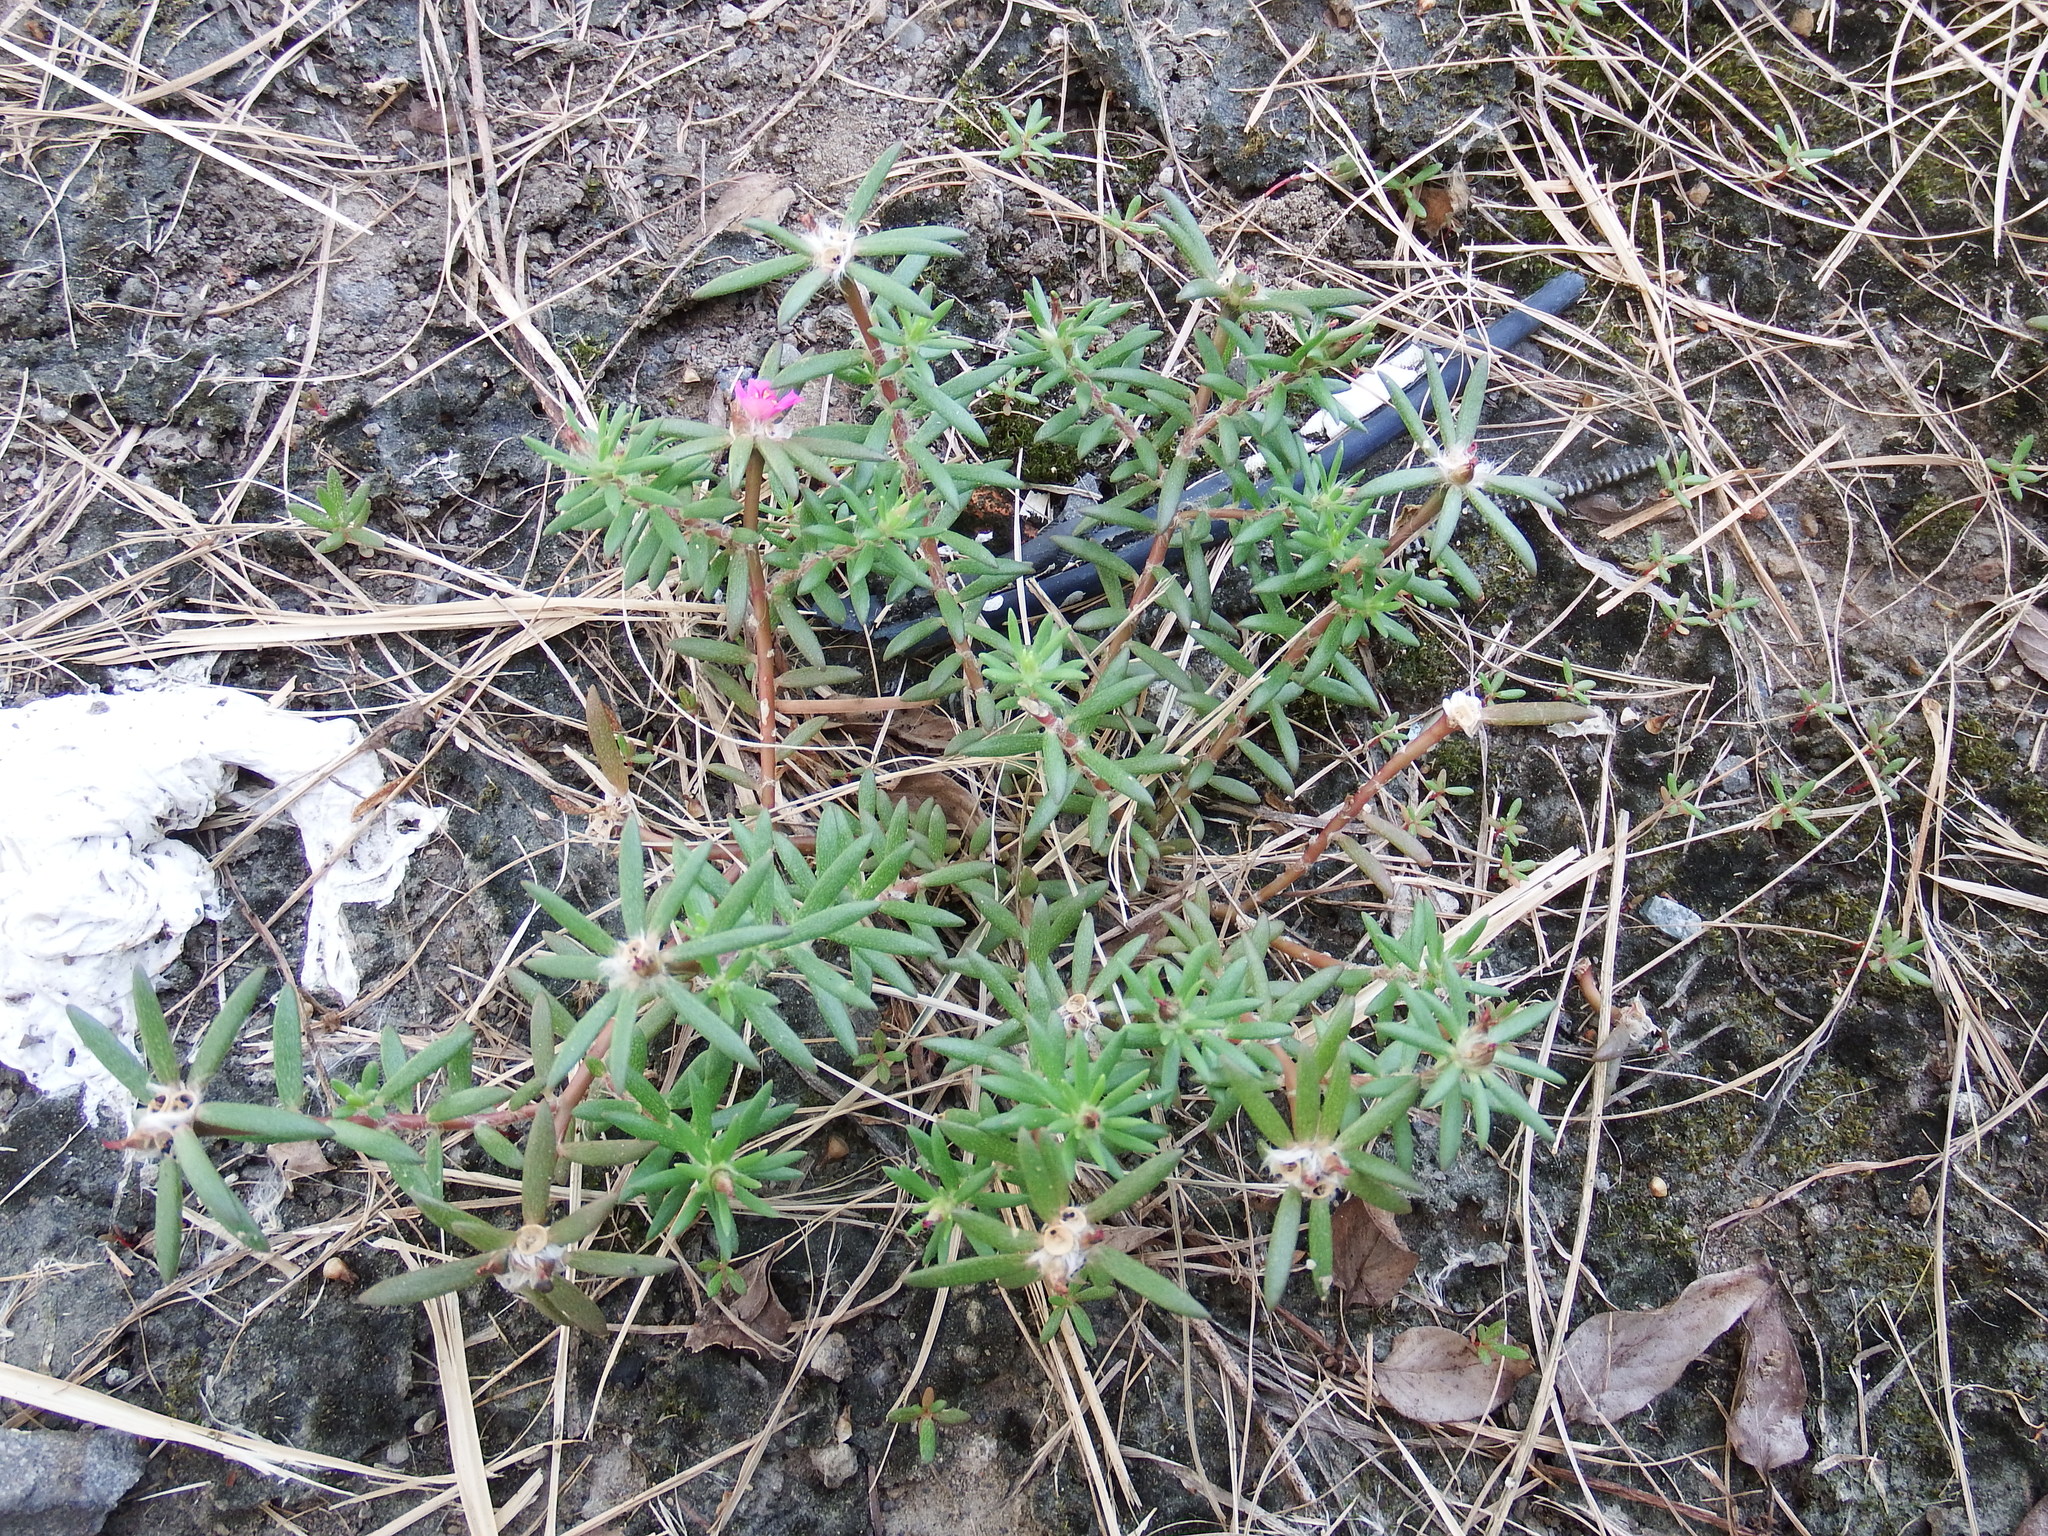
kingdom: Plantae
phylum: Tracheophyta
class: Magnoliopsida
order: Caryophyllales
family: Portulacaceae
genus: Portulaca
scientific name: Portulaca pilosa
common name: Kiss me quick
